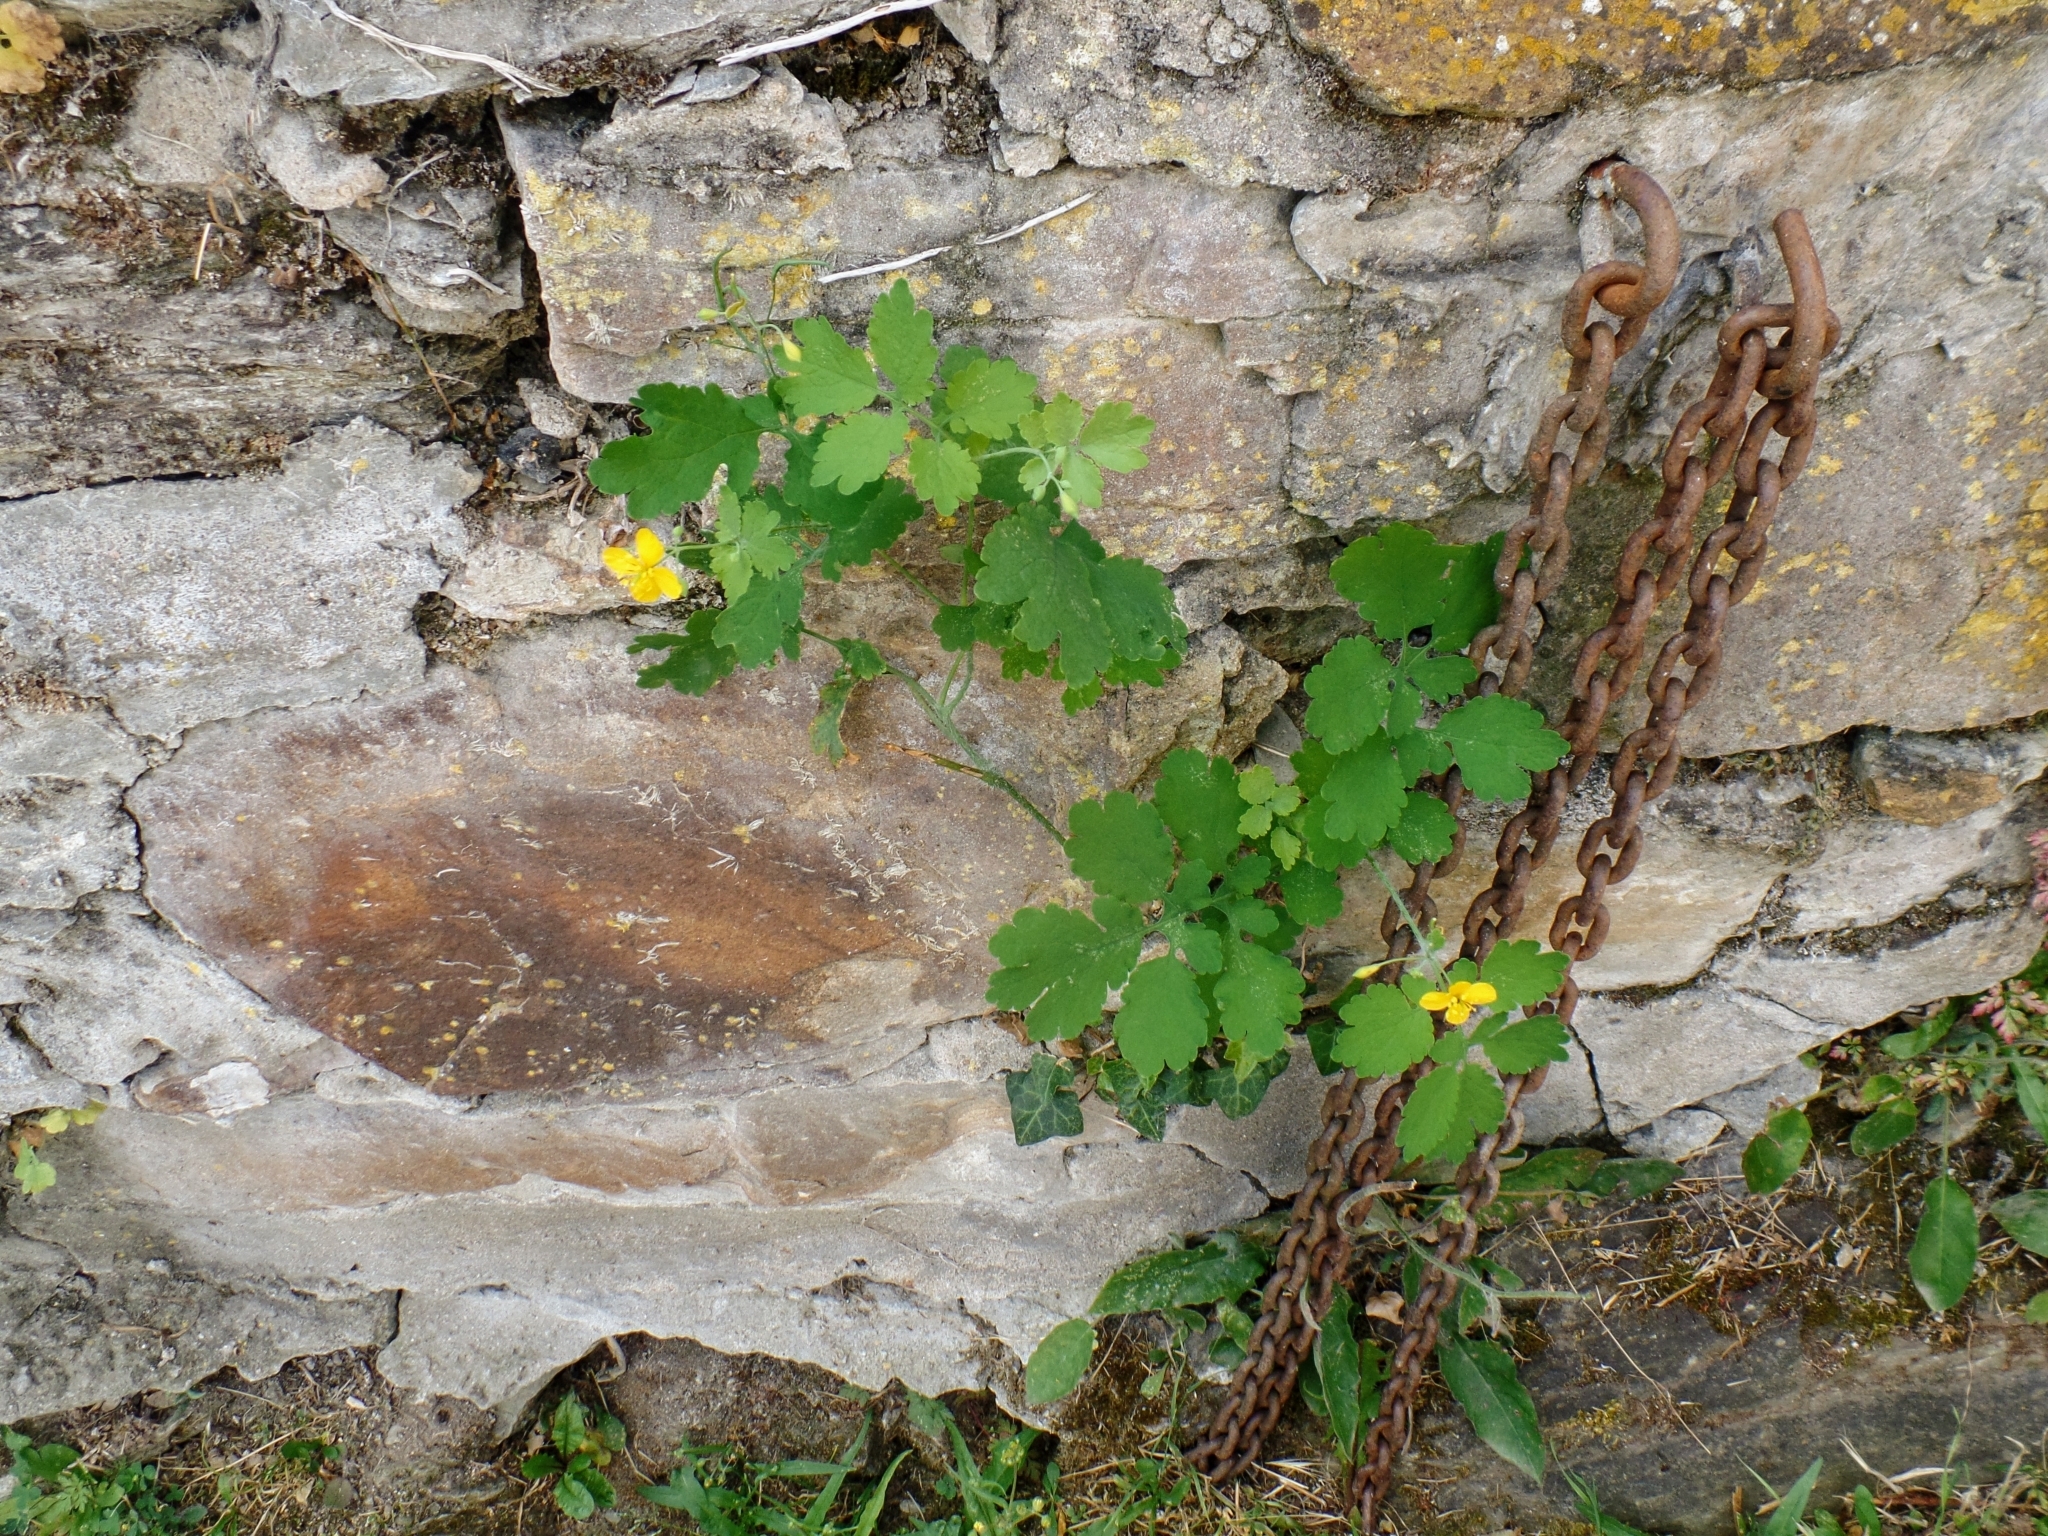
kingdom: Plantae
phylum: Tracheophyta
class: Magnoliopsida
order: Ranunculales
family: Papaveraceae
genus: Chelidonium
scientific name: Chelidonium majus
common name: Greater celandine
